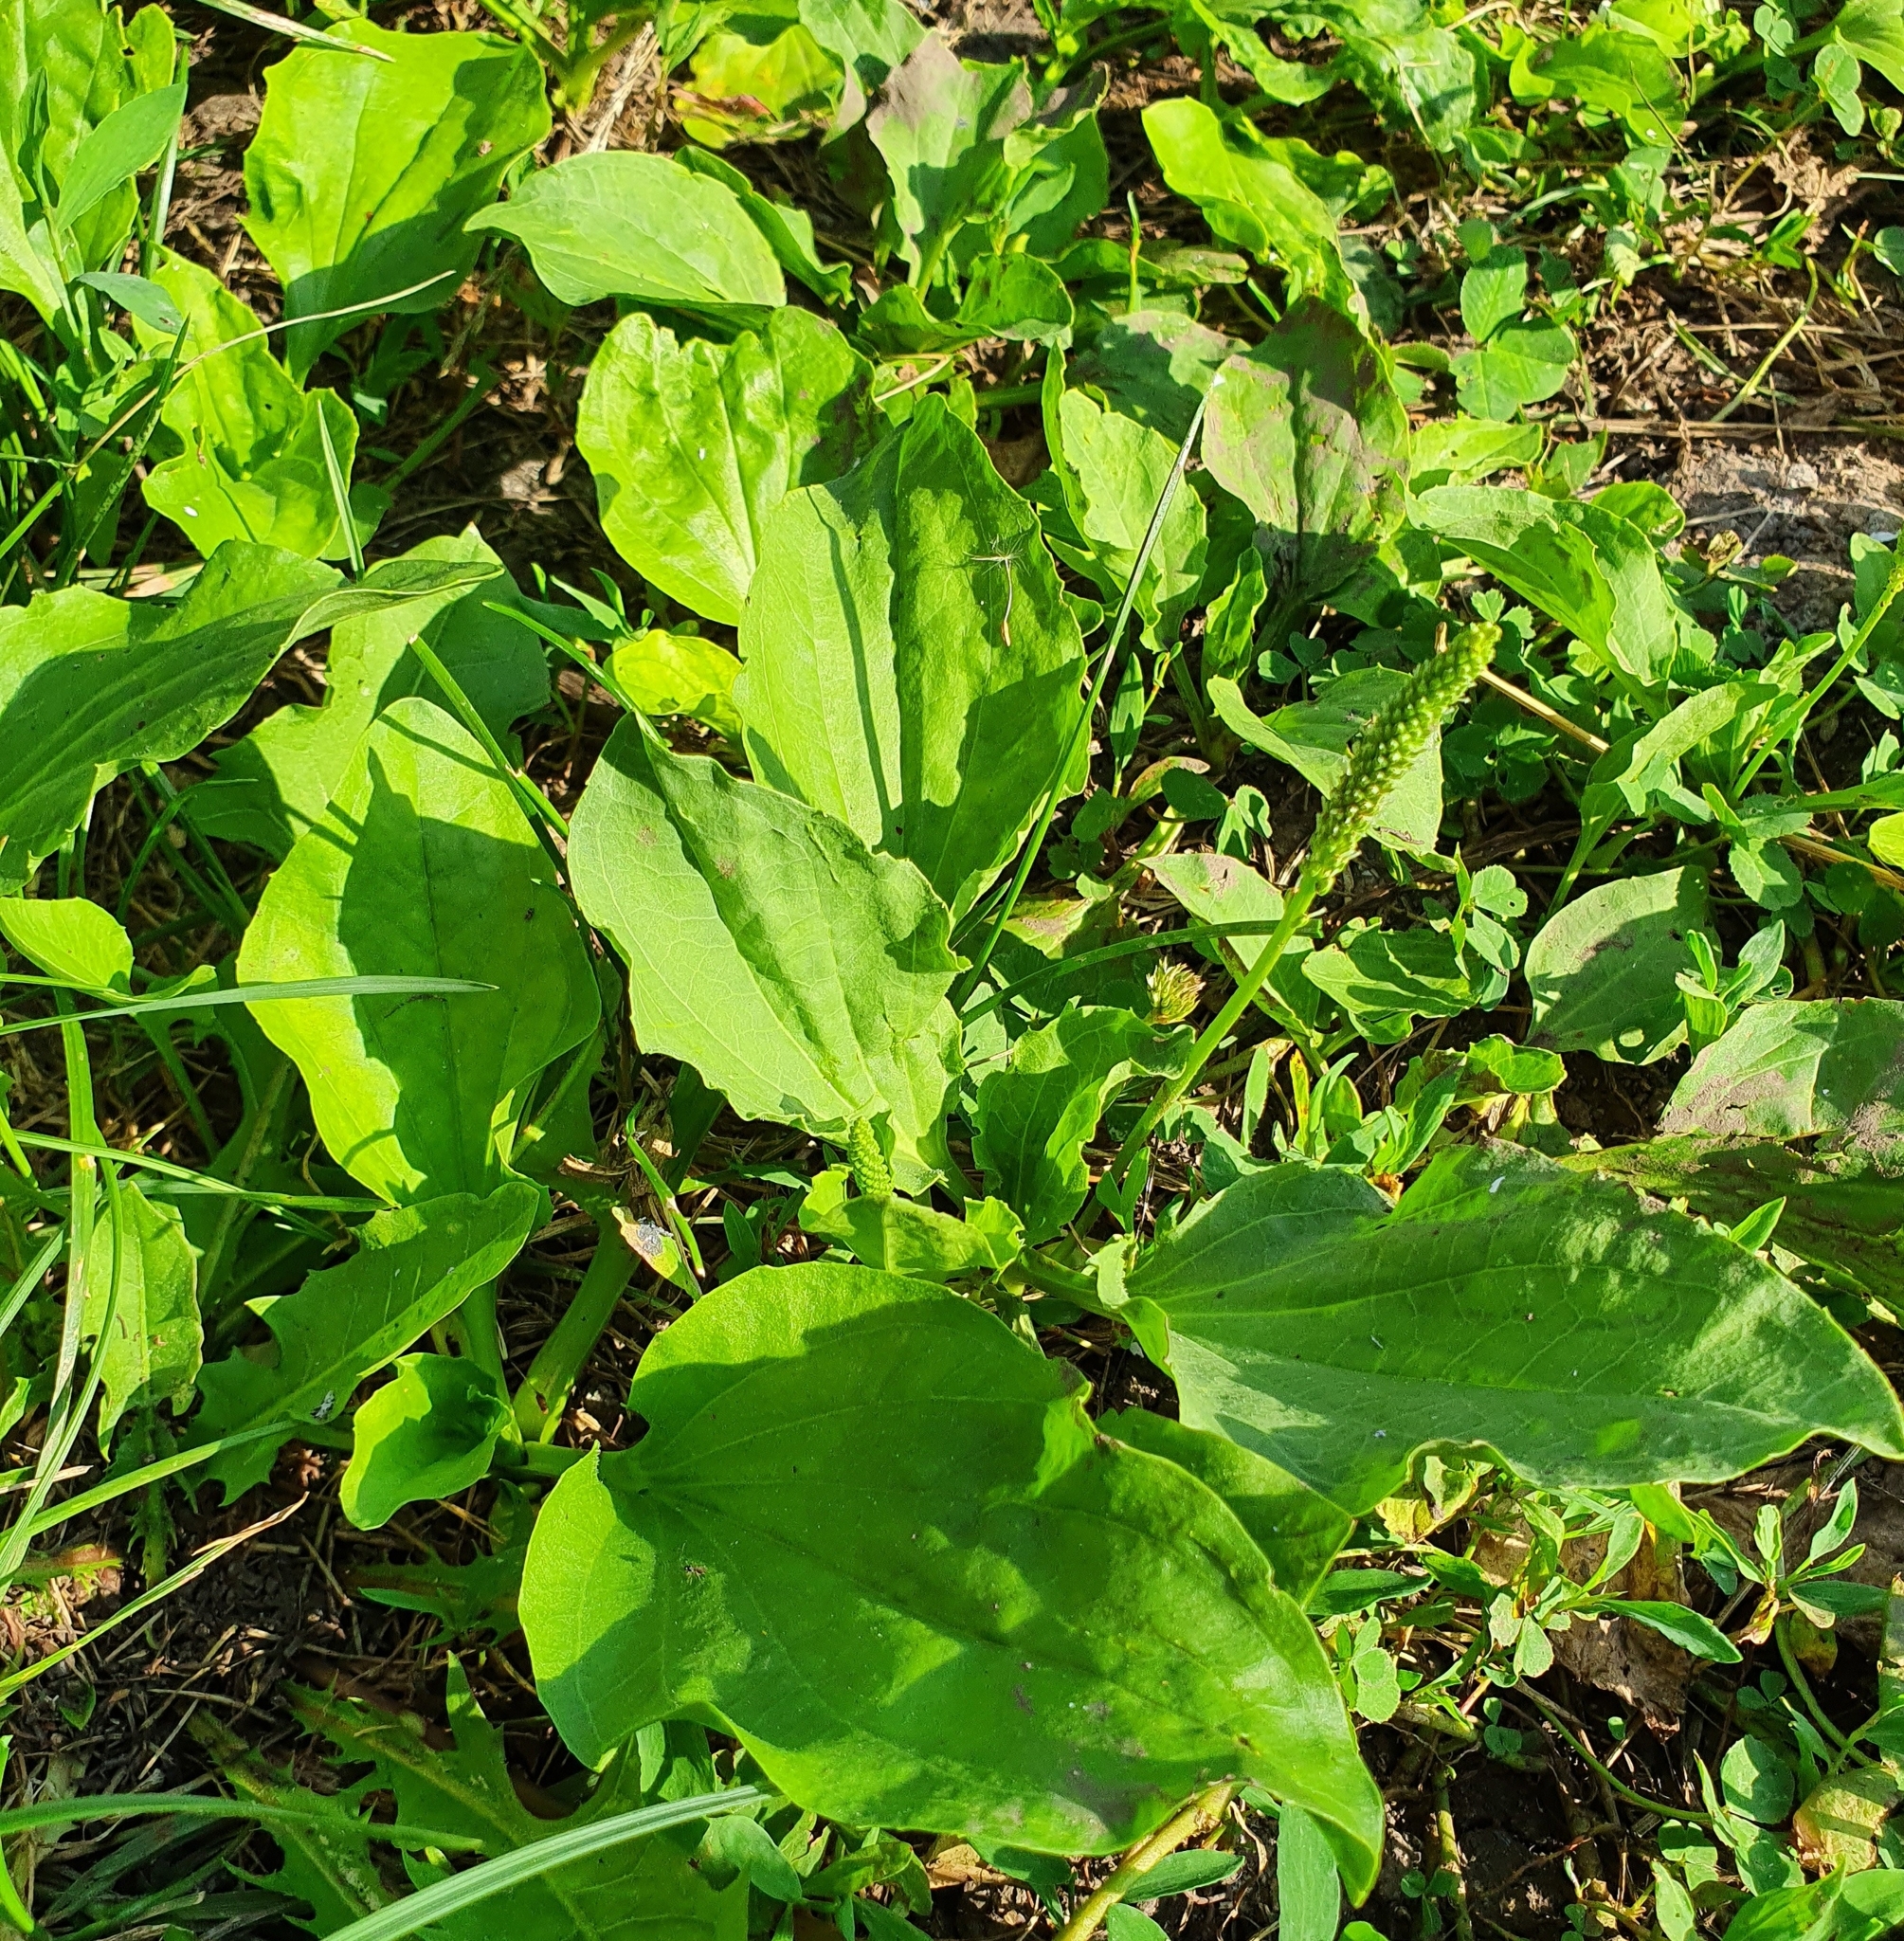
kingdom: Plantae
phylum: Tracheophyta
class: Magnoliopsida
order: Lamiales
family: Plantaginaceae
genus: Plantago
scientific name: Plantago major
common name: Common plantain
